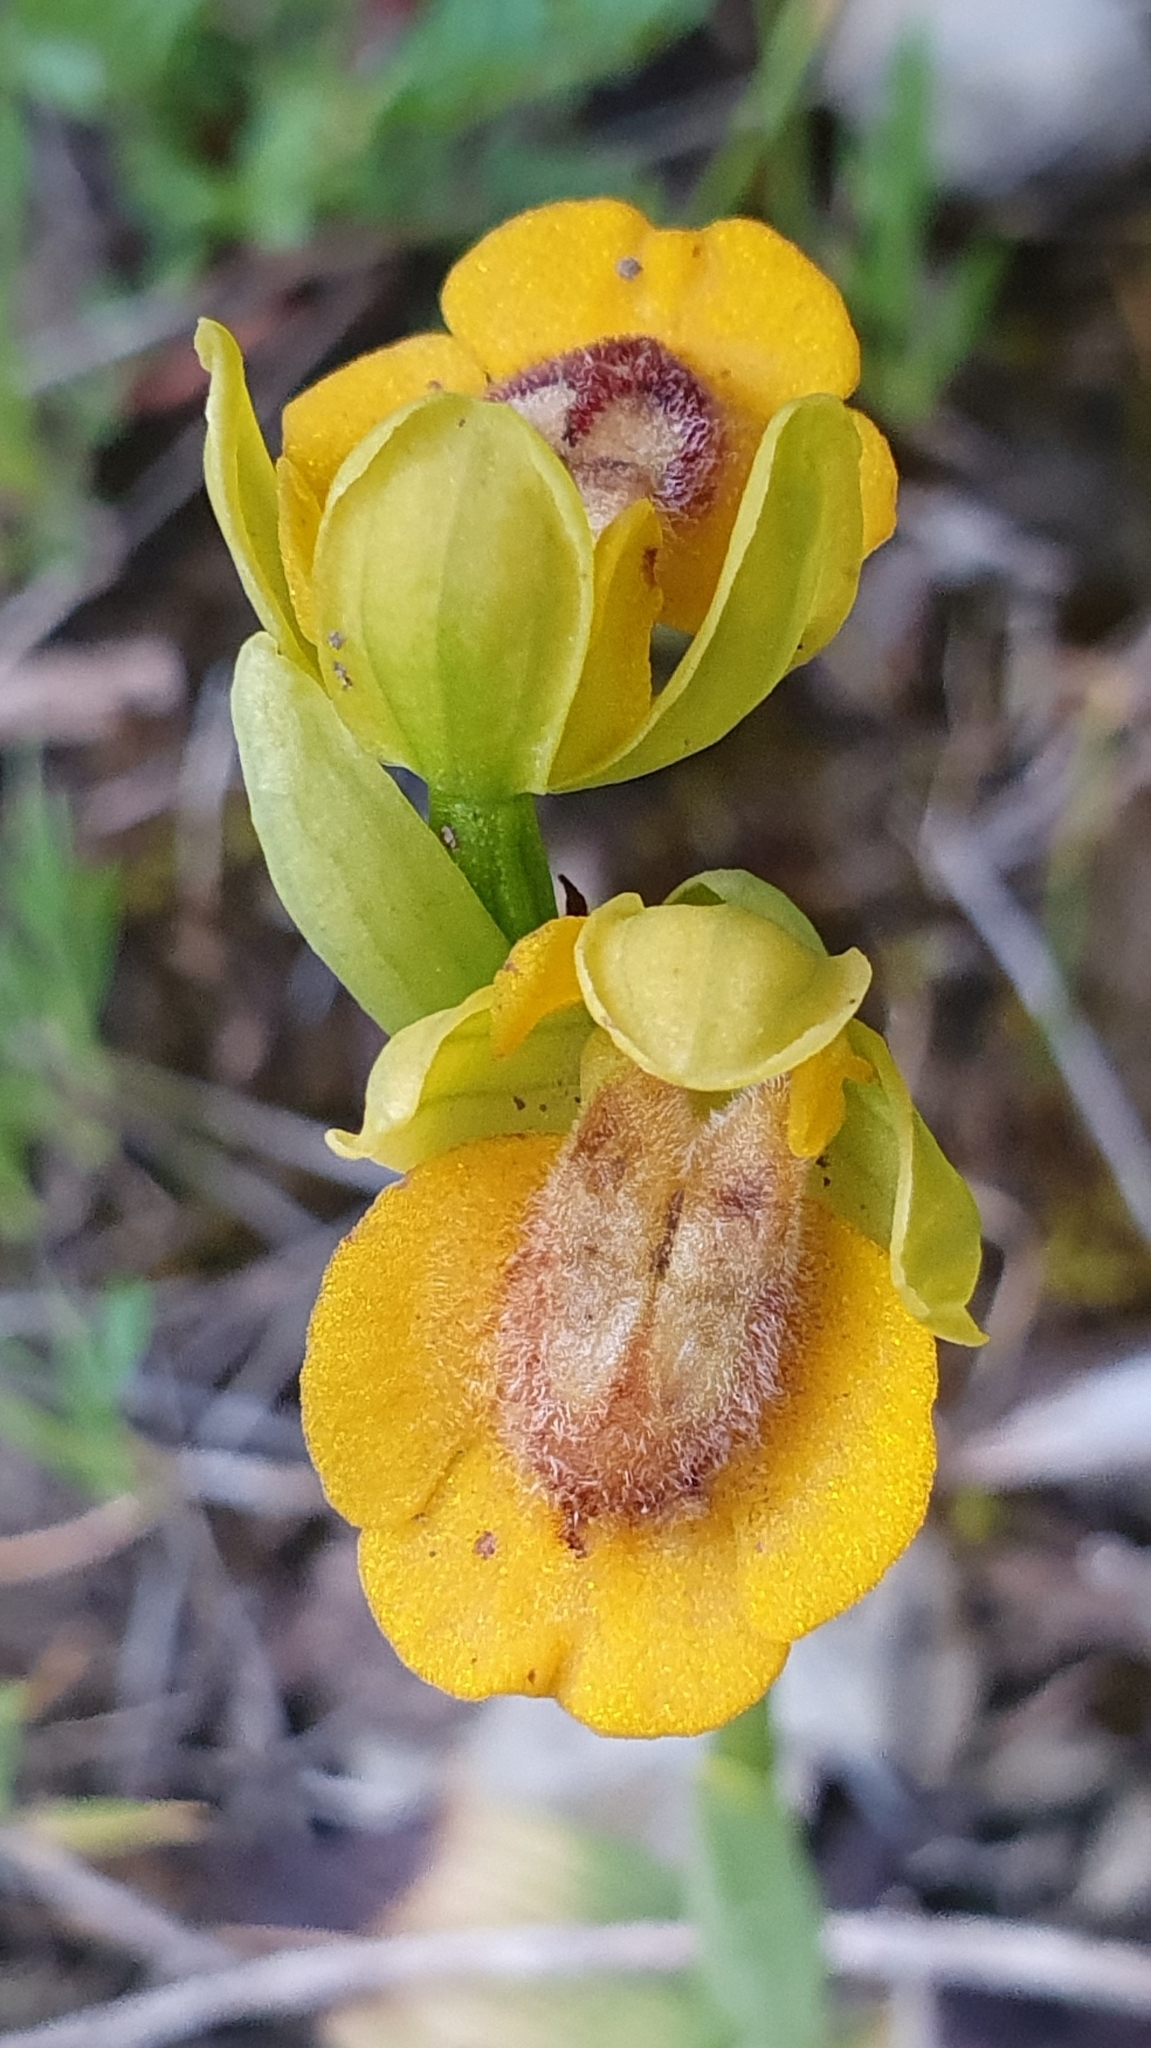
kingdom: Plantae
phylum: Tracheophyta
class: Liliopsida
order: Asparagales
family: Orchidaceae
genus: Ophrys
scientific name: Ophrys lutea
